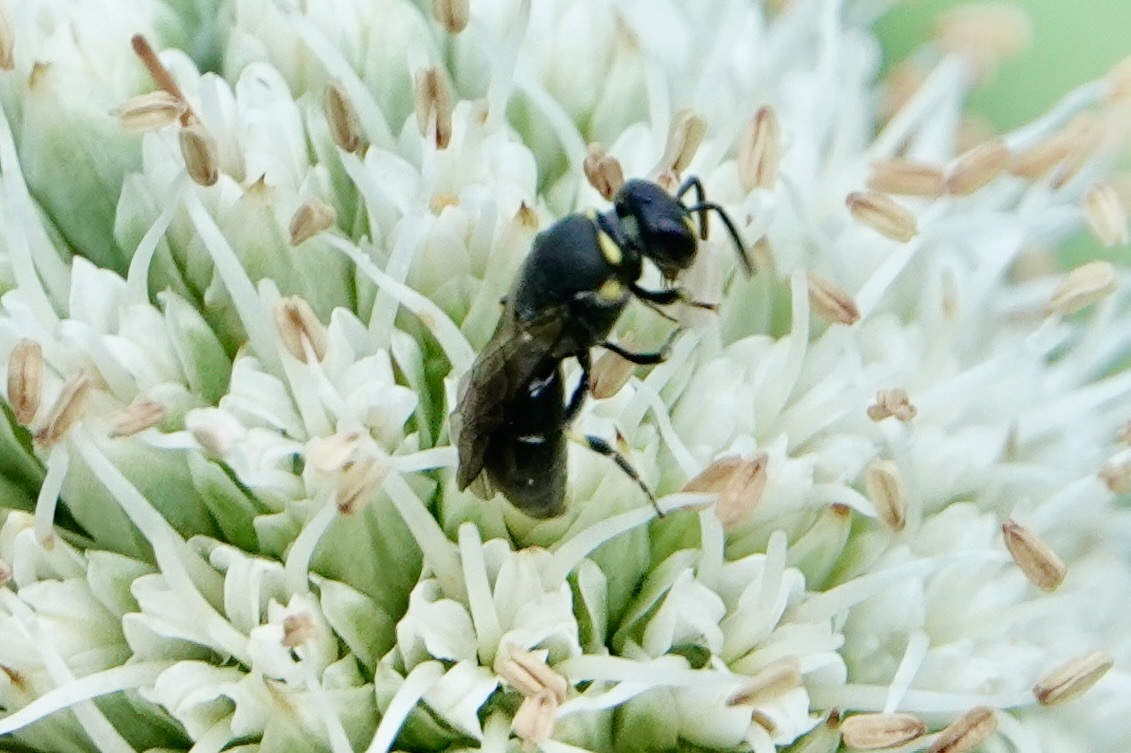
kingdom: Animalia
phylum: Arthropoda
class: Insecta
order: Hymenoptera
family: Colletidae
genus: Hylaeus
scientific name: Hylaeus modestus
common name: Yellow-faced bee
